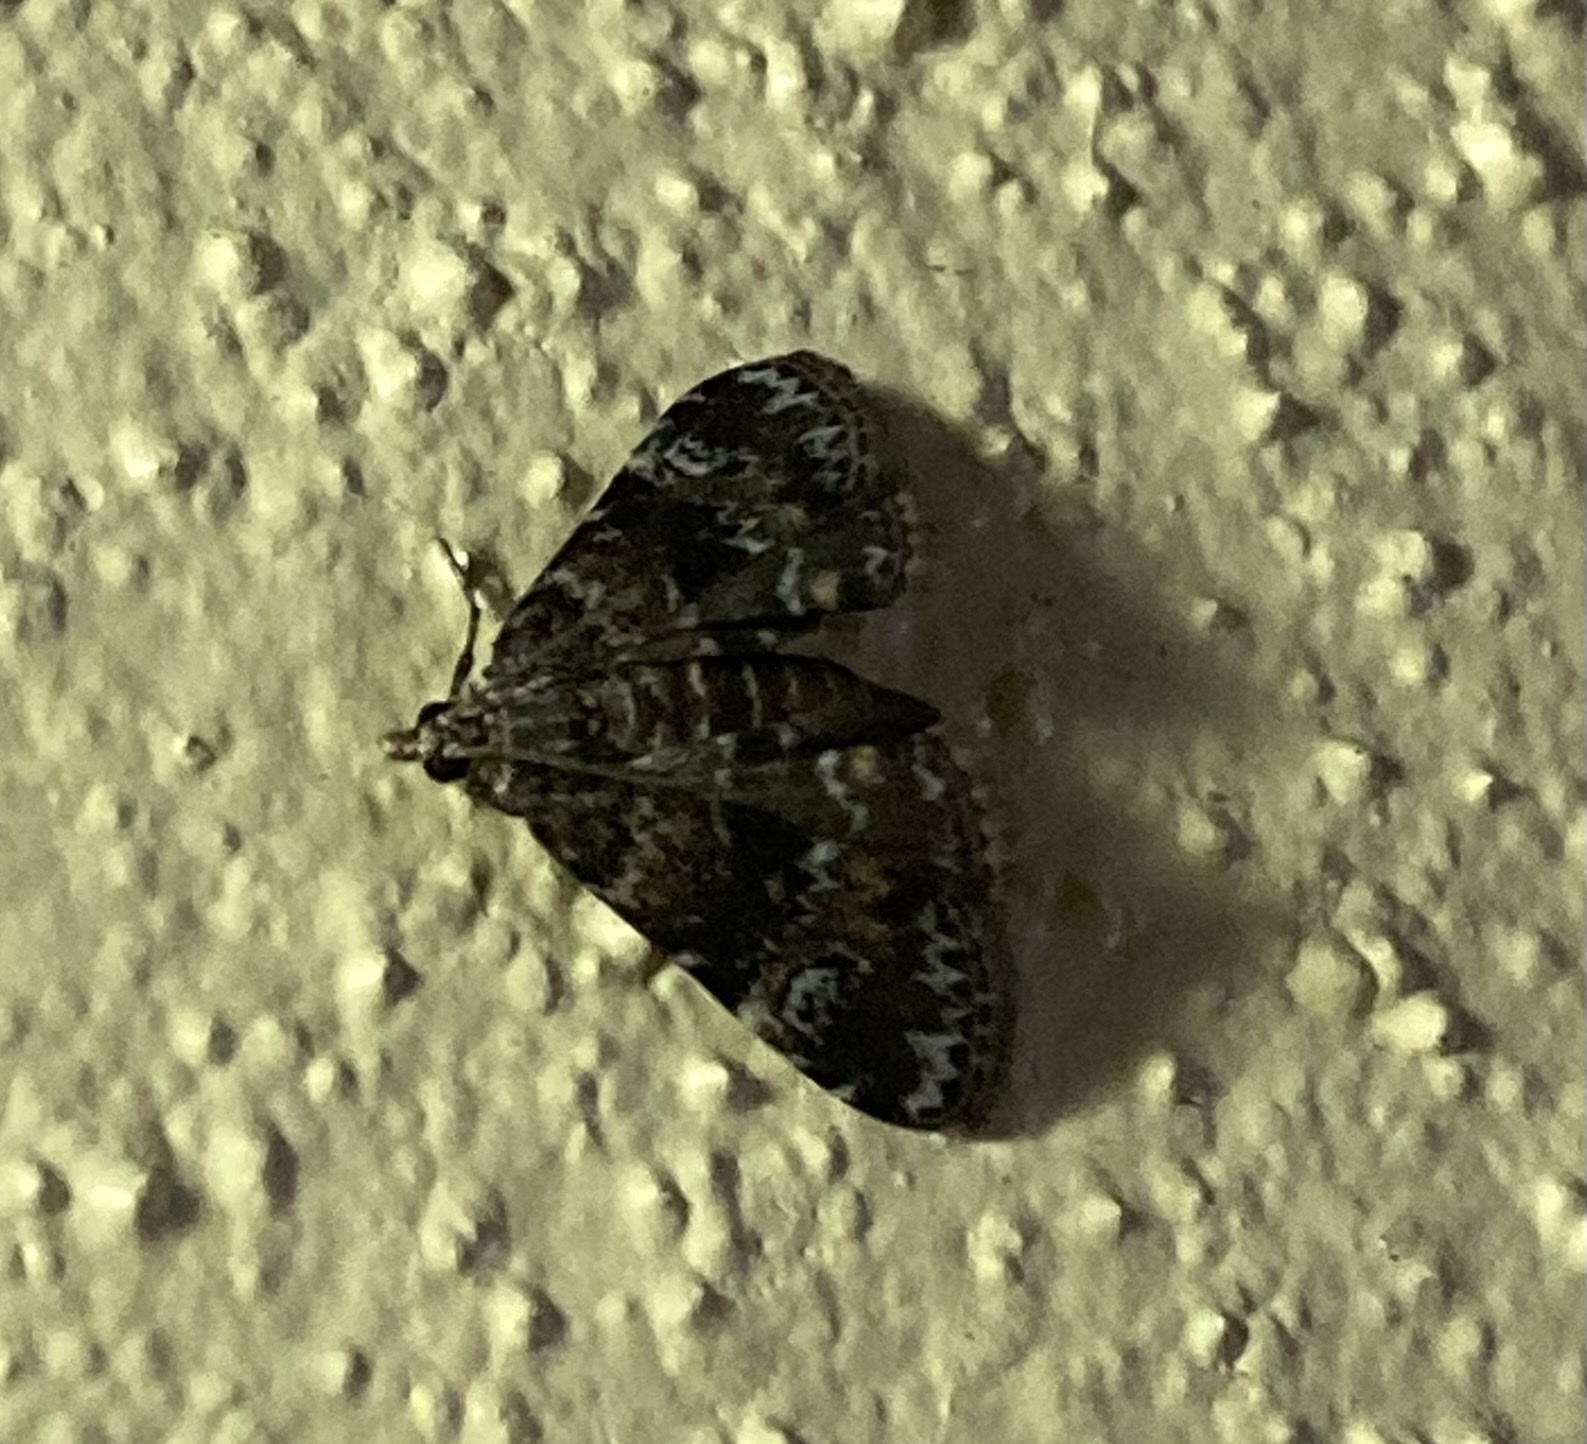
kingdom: Animalia
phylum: Arthropoda
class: Insecta
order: Lepidoptera
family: Crambidae
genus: Elophila
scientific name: Elophila obliteralis
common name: Waterlily leafcutter moth
